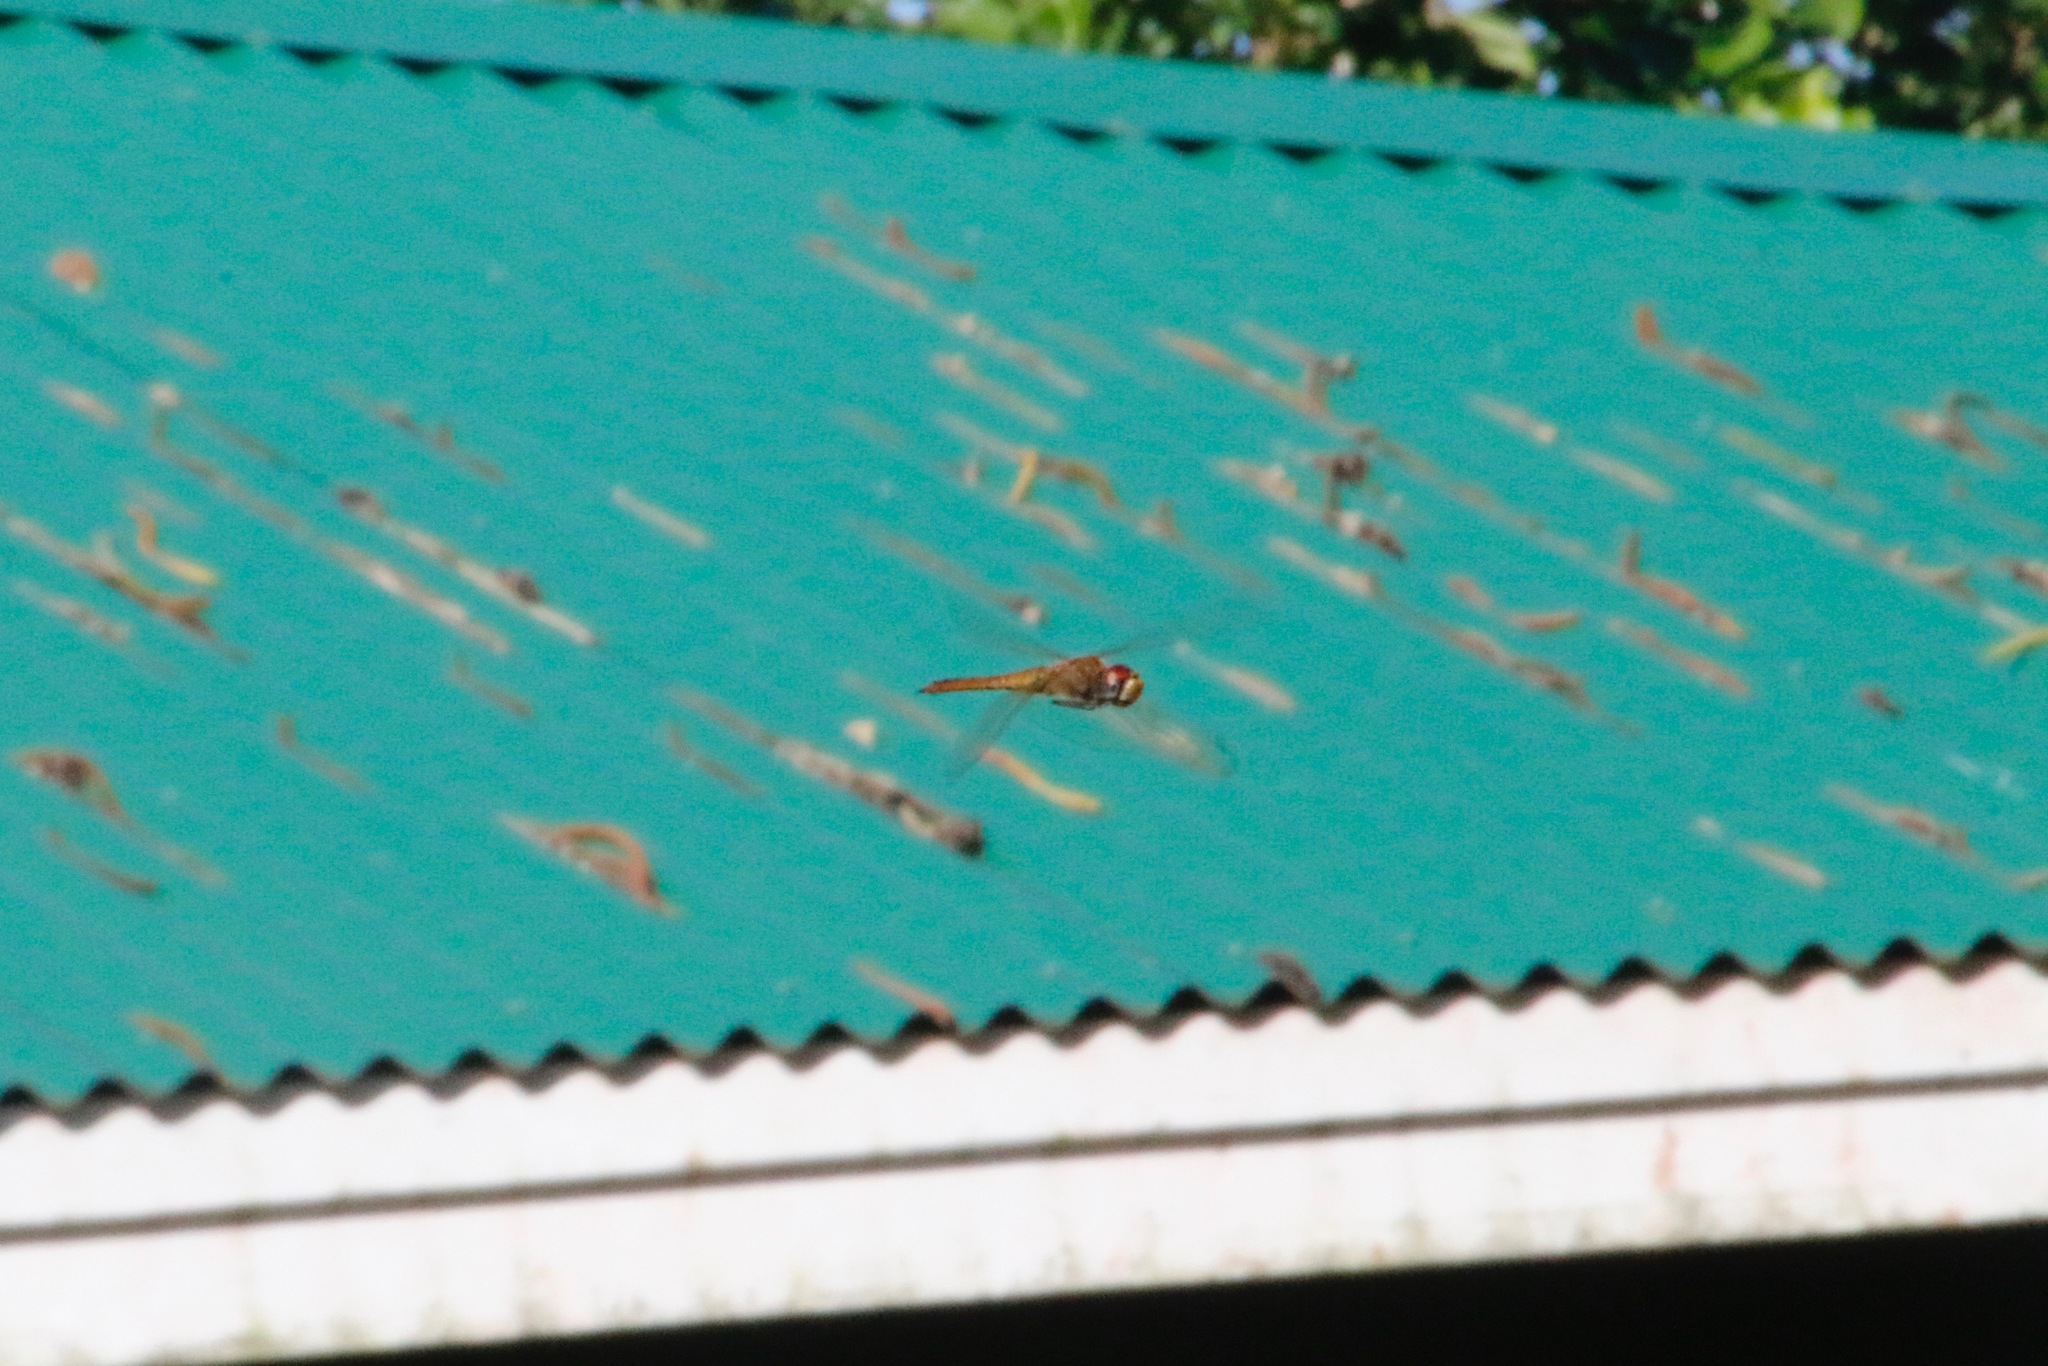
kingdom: Animalia
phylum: Arthropoda
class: Insecta
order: Odonata
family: Libellulidae
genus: Pantala
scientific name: Pantala flavescens
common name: Wandering glider
